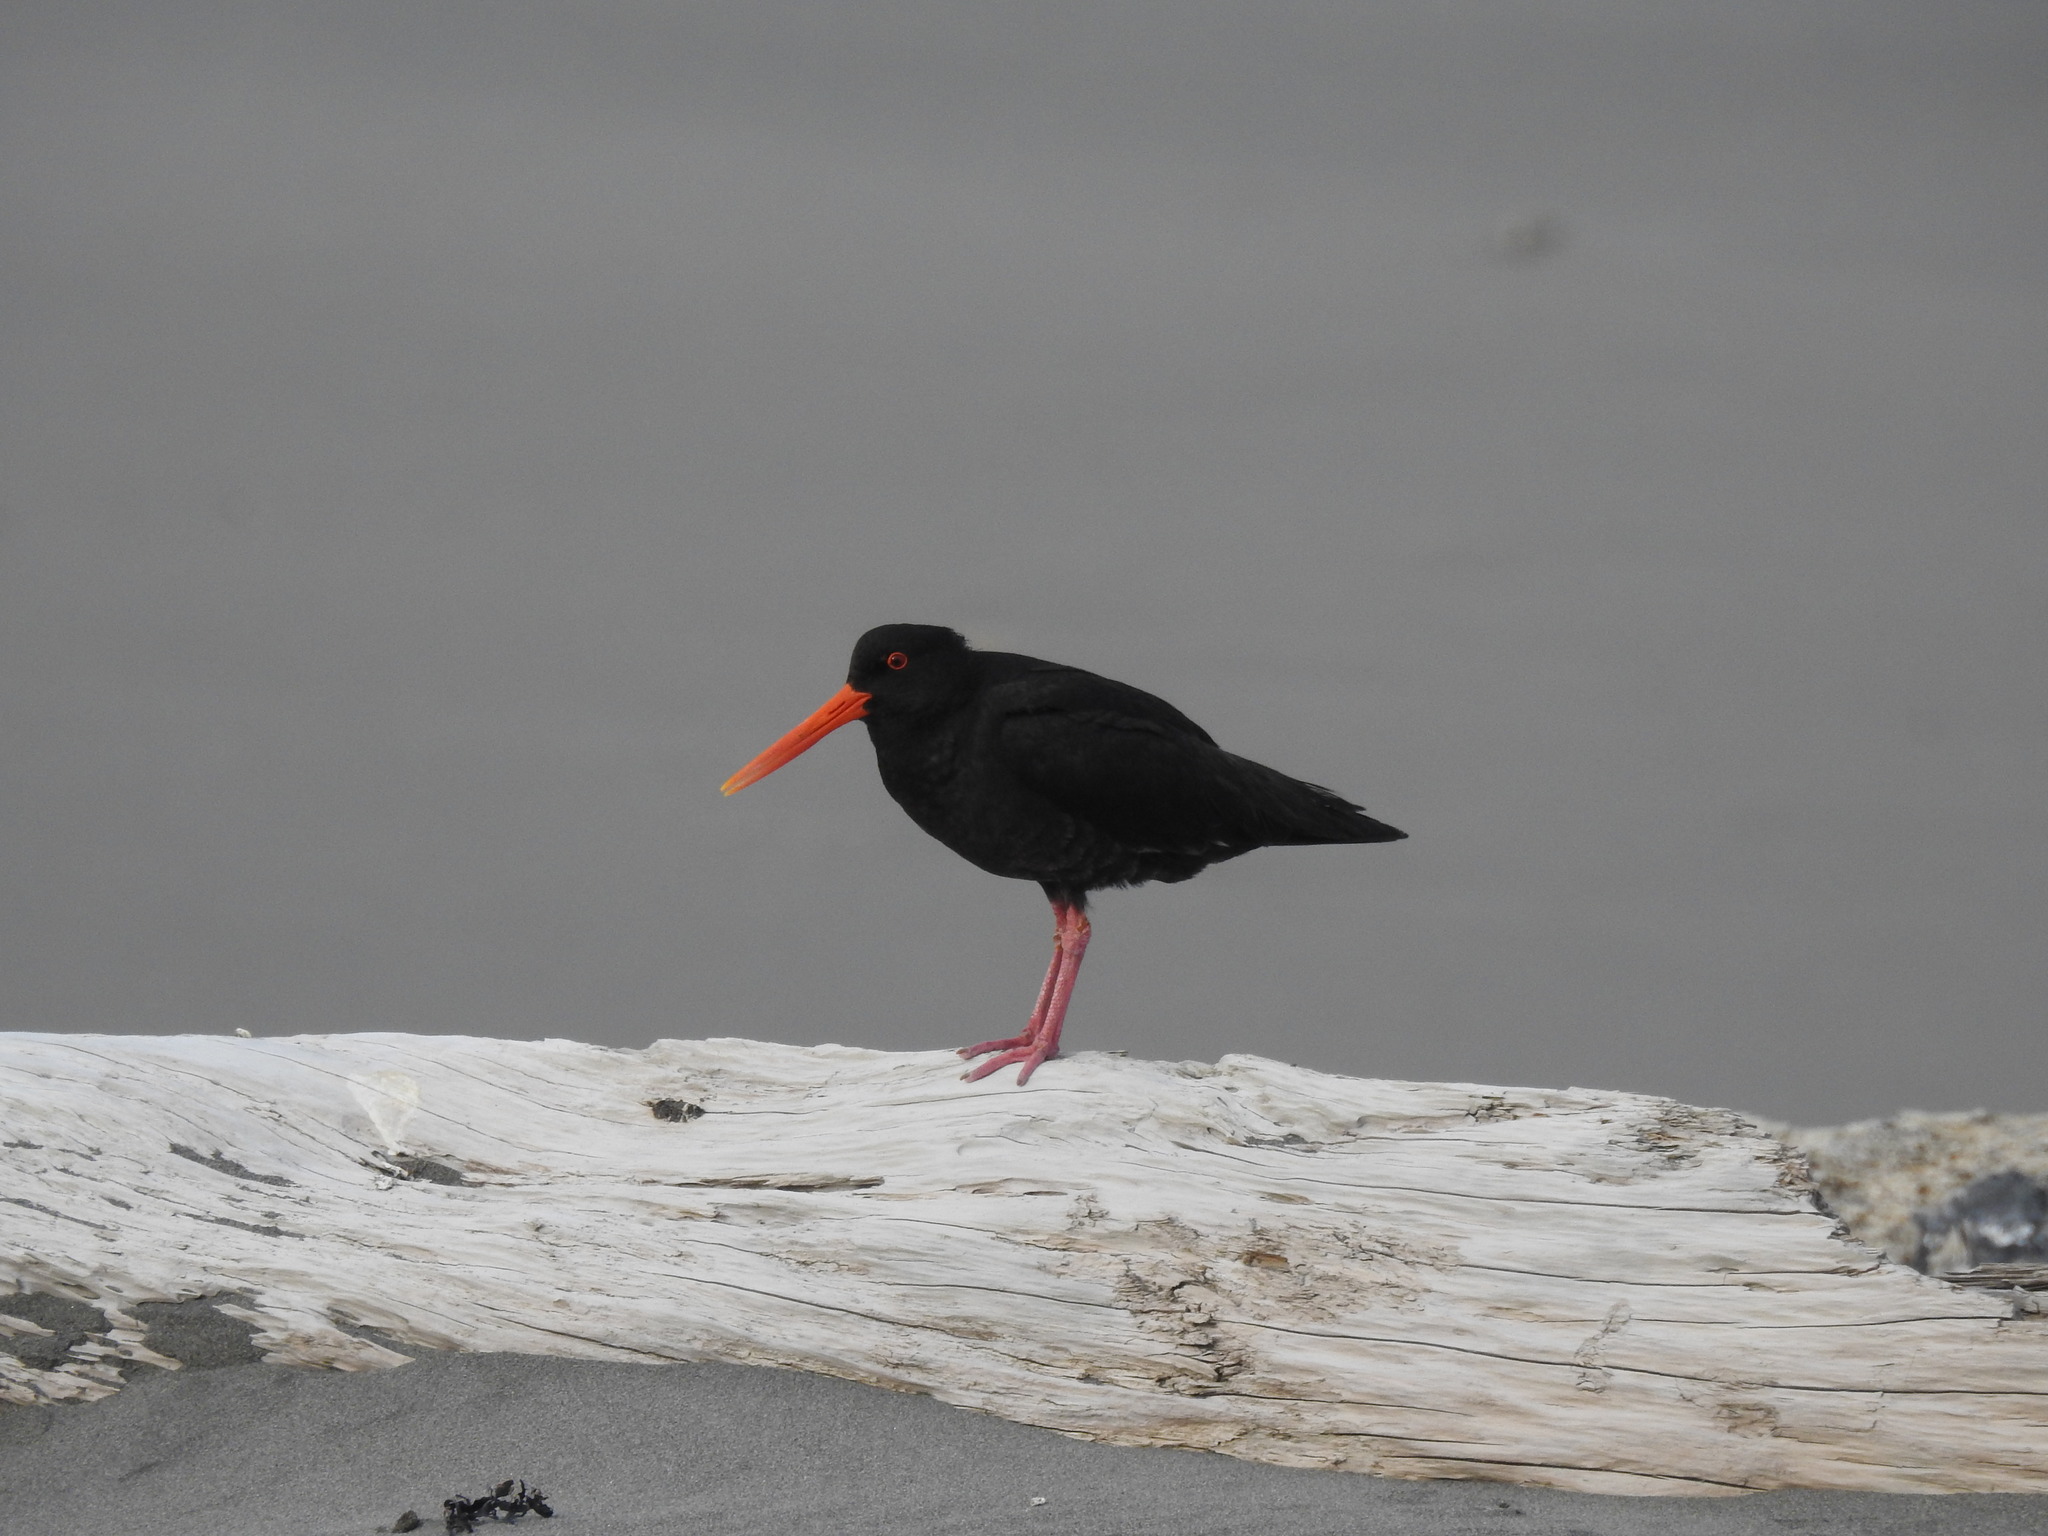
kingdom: Animalia
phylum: Chordata
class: Aves
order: Charadriiformes
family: Haematopodidae
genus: Haematopus
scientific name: Haematopus unicolor
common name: Variable oystercatcher
